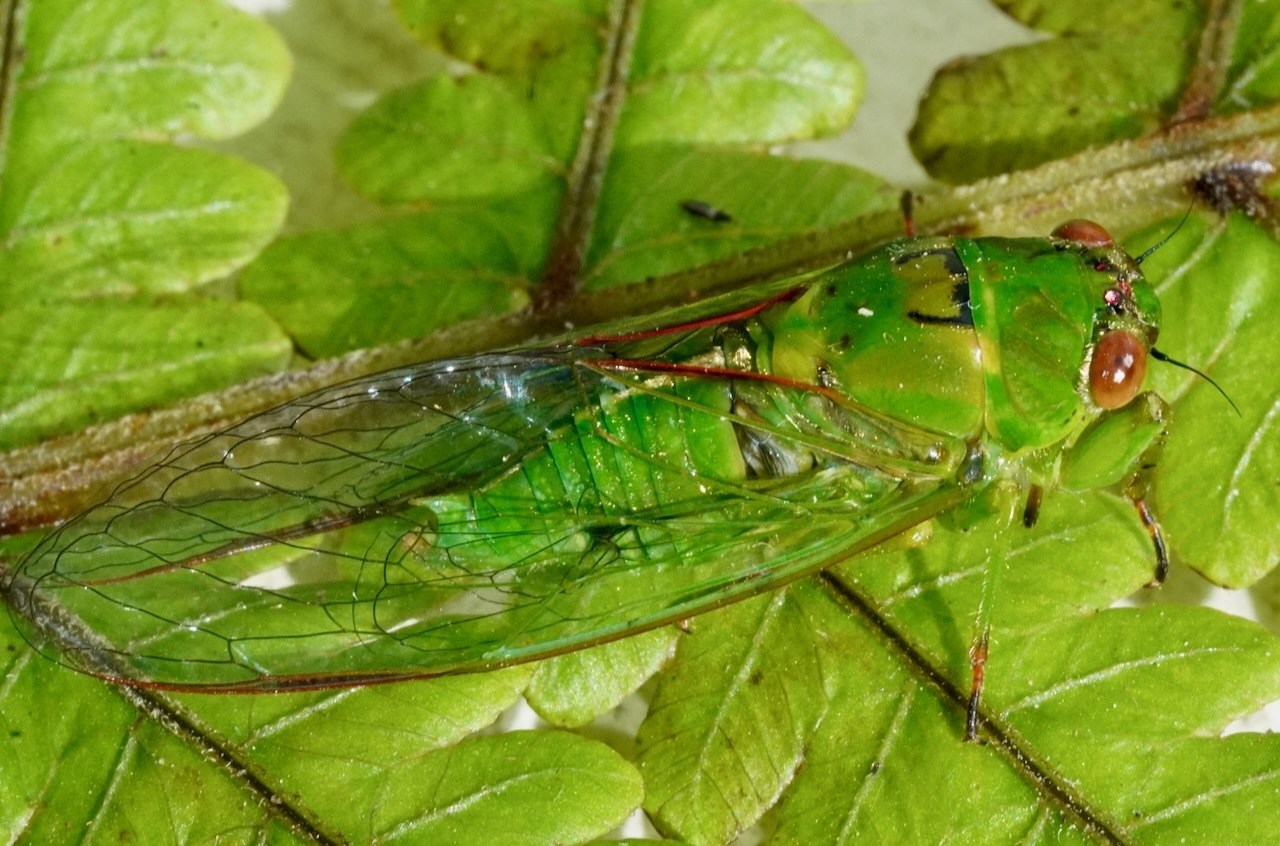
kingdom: Animalia
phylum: Arthropoda
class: Insecta
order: Hemiptera
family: Cicadidae
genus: Kikihia
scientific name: Kikihia ochrina
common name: April green cicada
